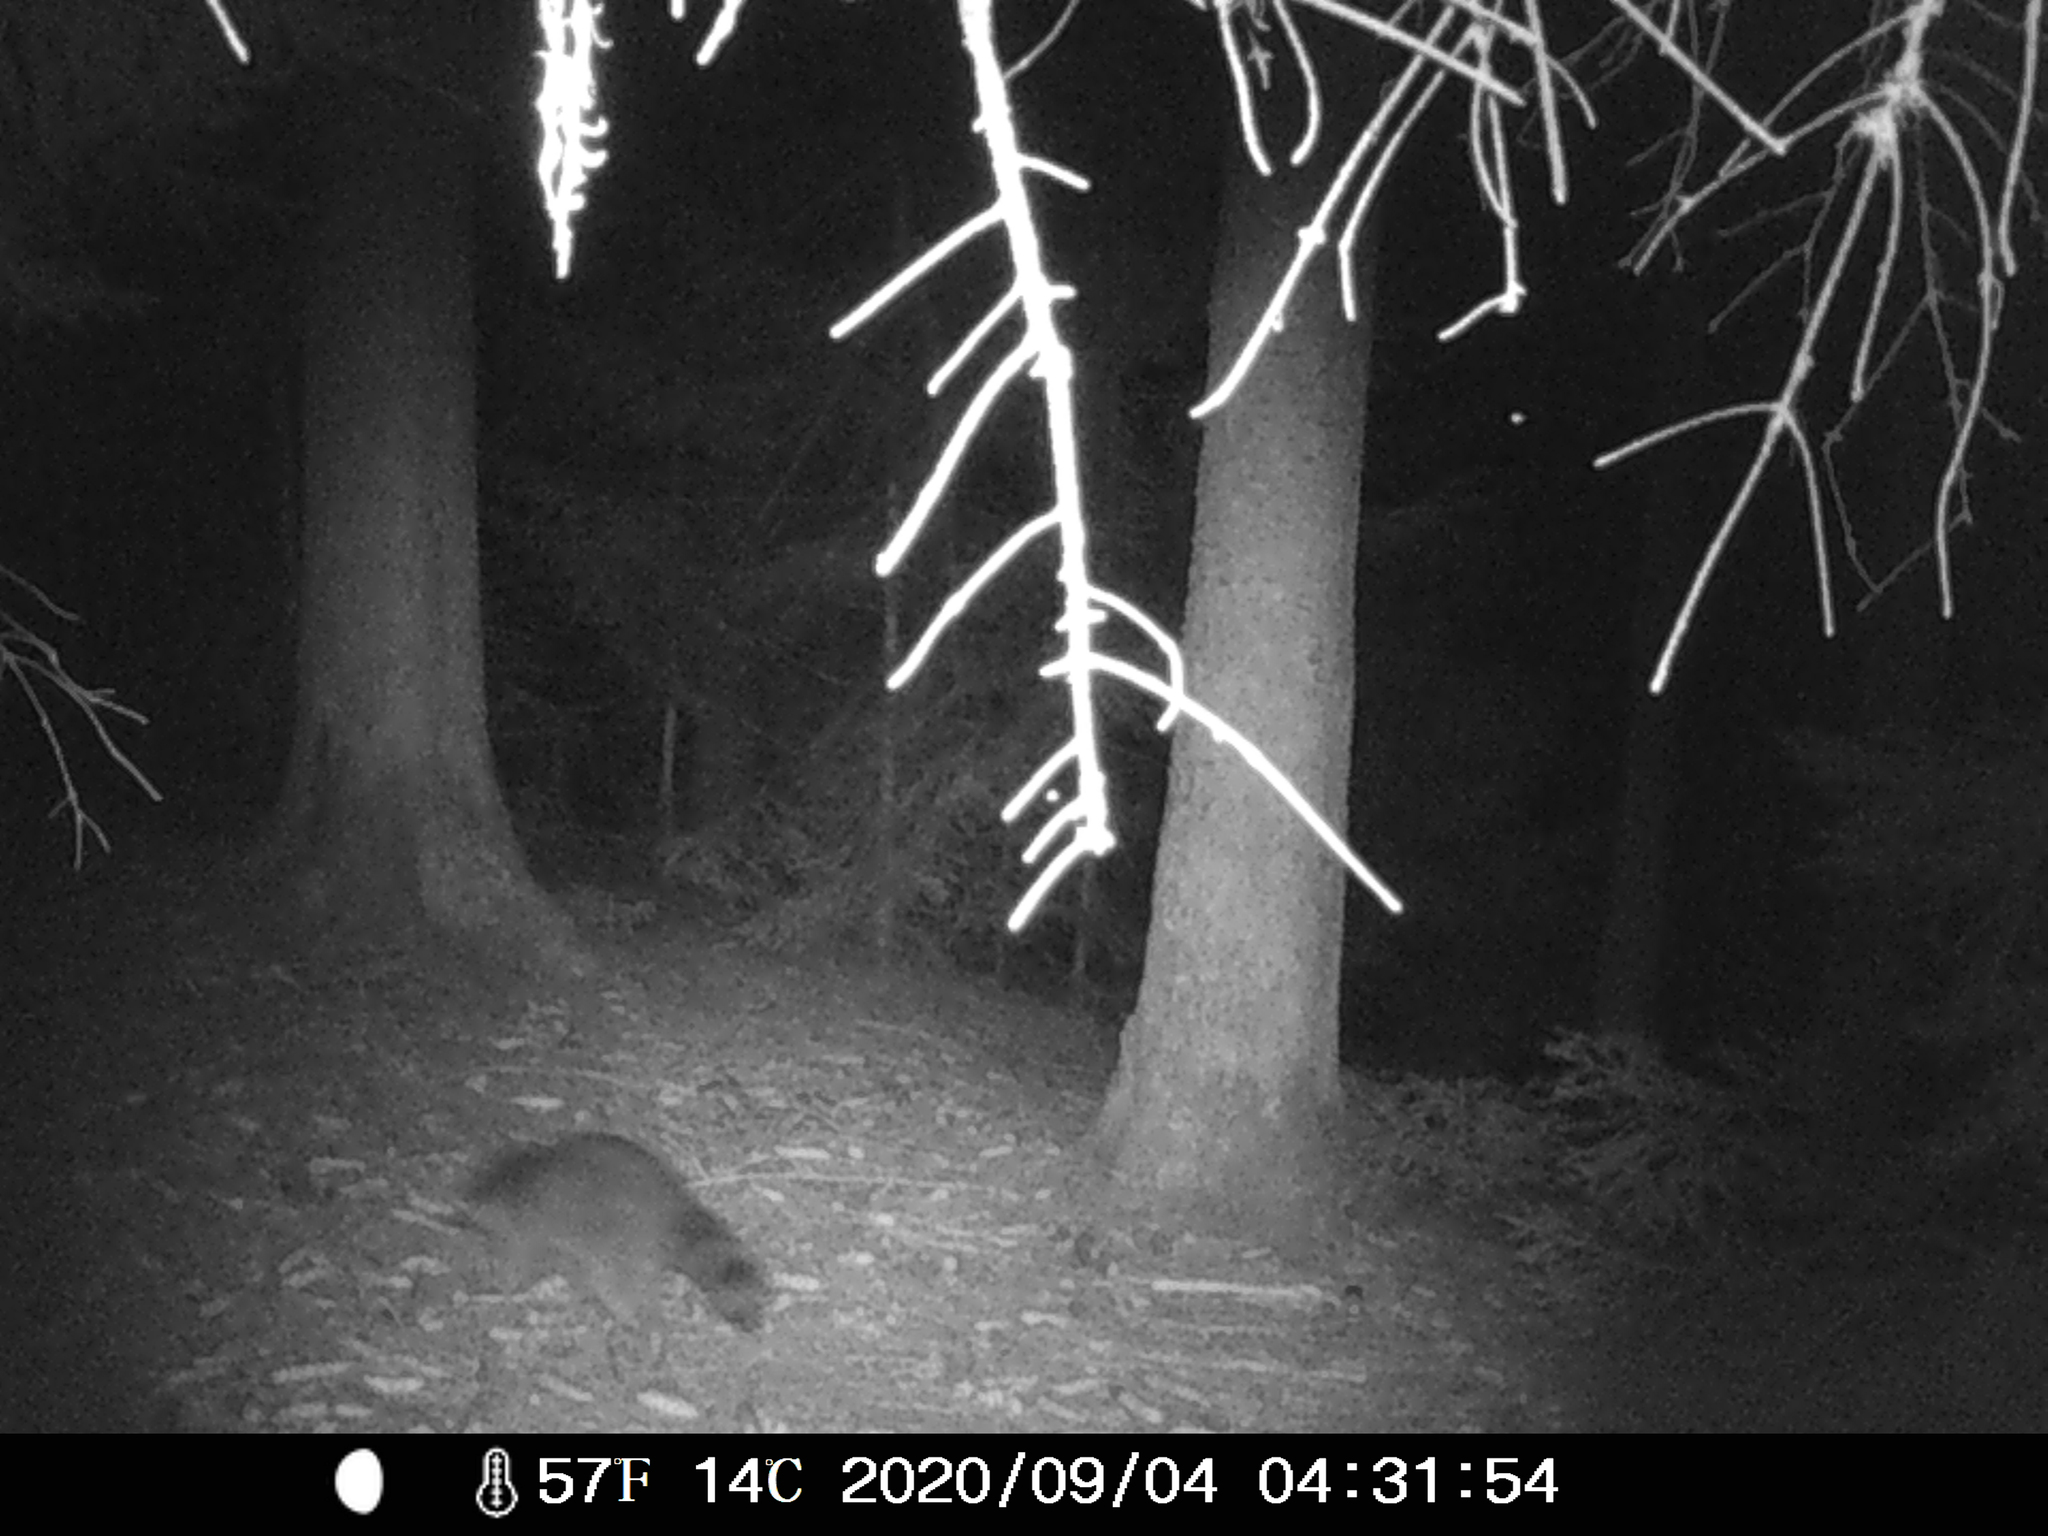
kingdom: Animalia
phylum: Chordata
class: Mammalia
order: Carnivora
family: Procyonidae
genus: Procyon
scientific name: Procyon lotor
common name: Raccoon
